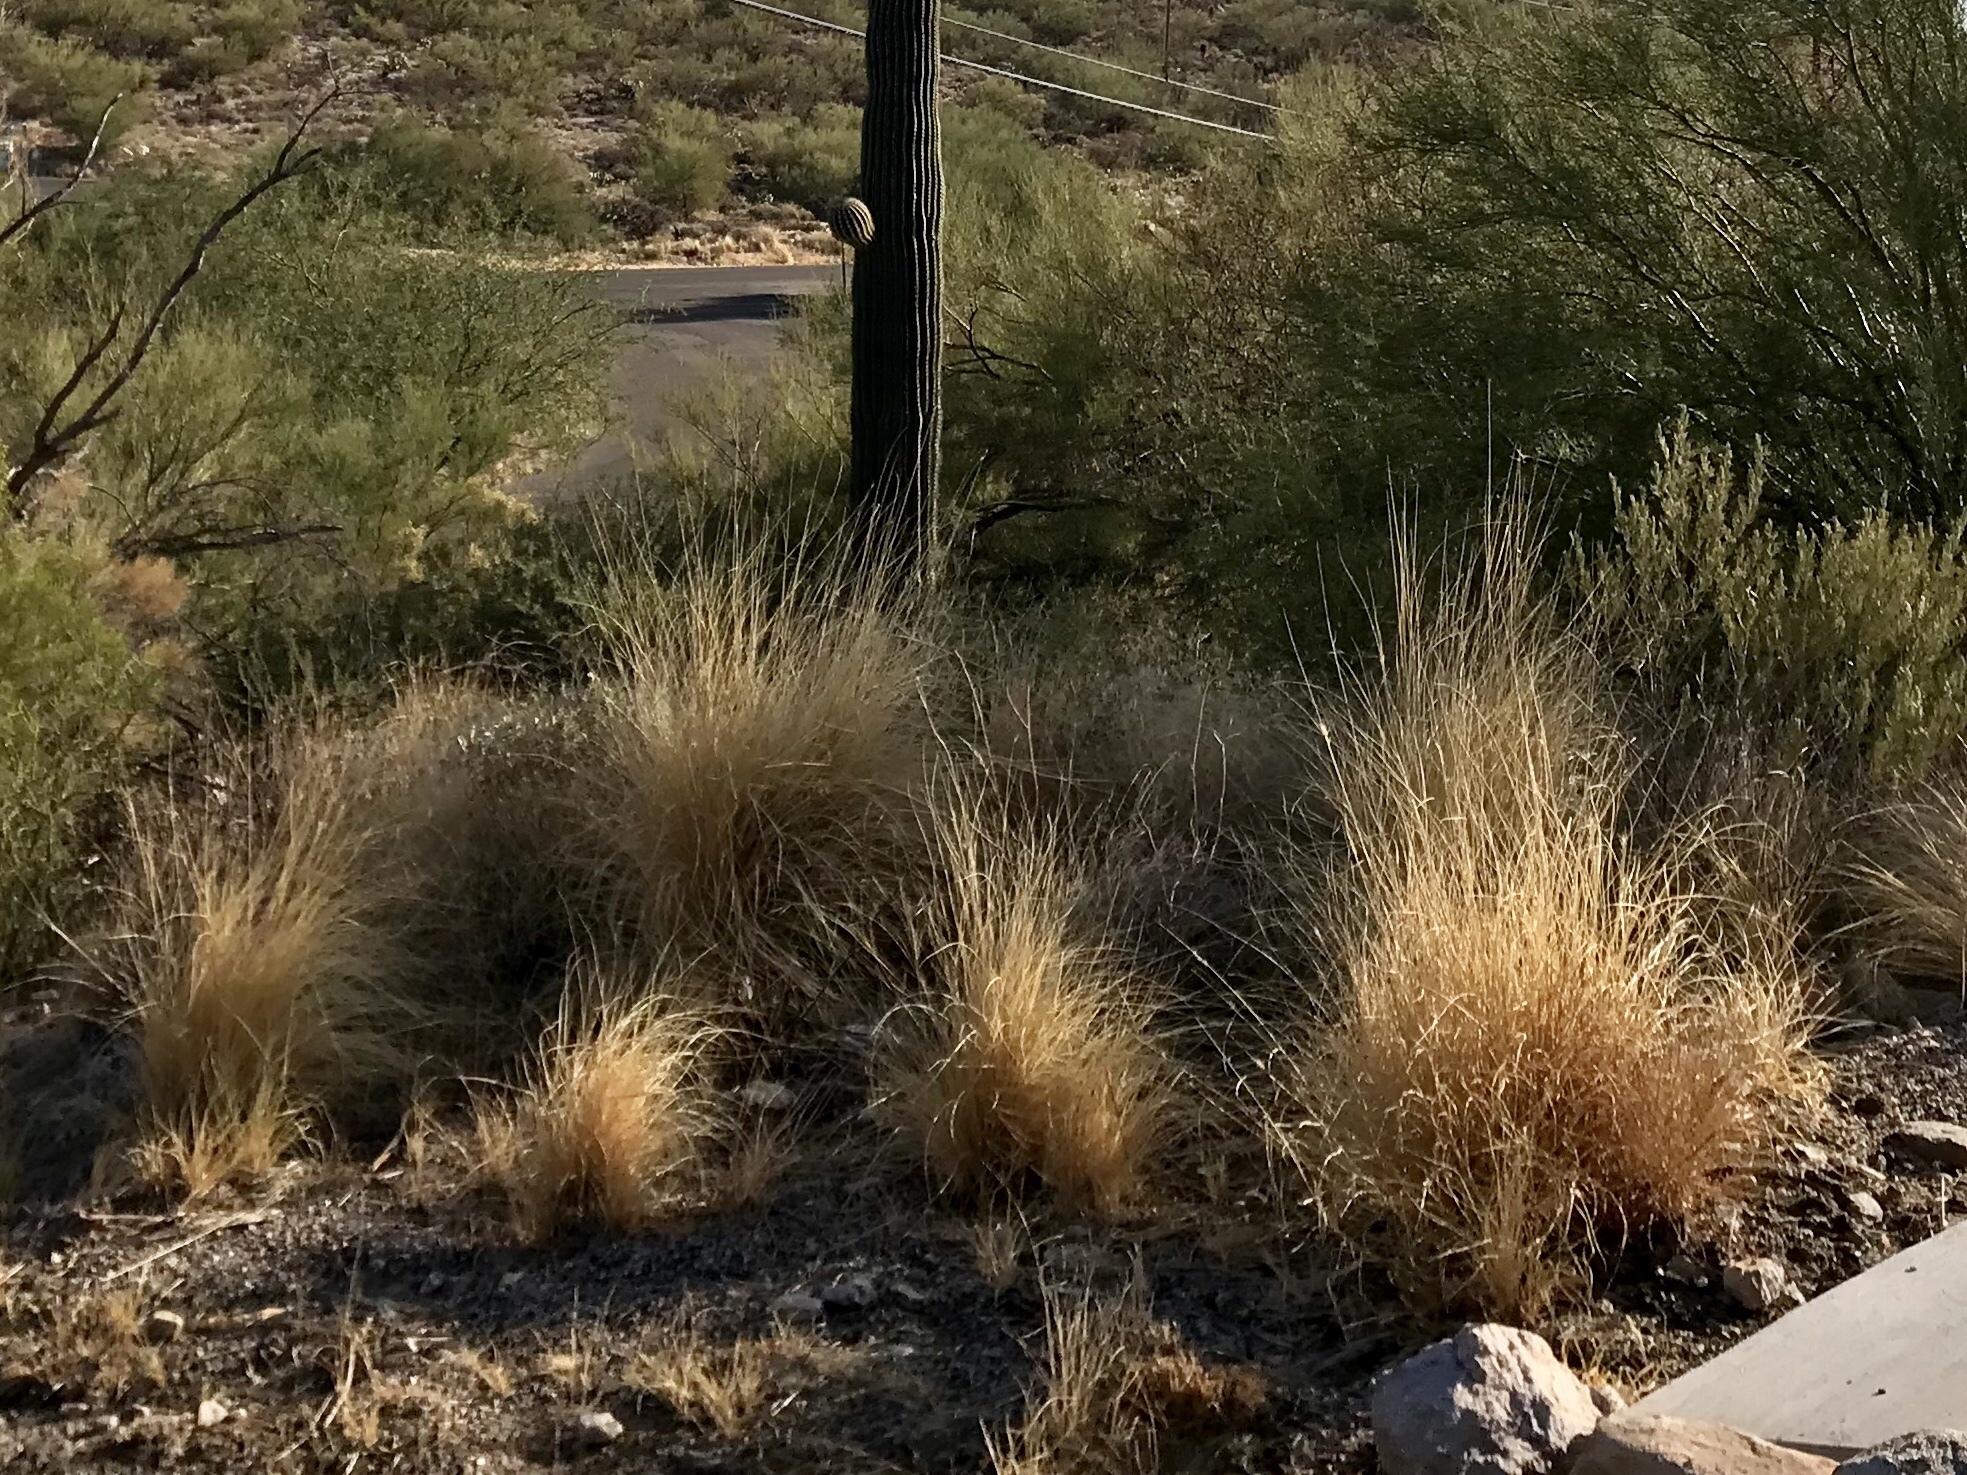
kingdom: Plantae
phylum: Tracheophyta
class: Liliopsida
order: Poales
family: Poaceae
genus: Cenchrus
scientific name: Cenchrus setaceus
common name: Crimson fountaingrass
